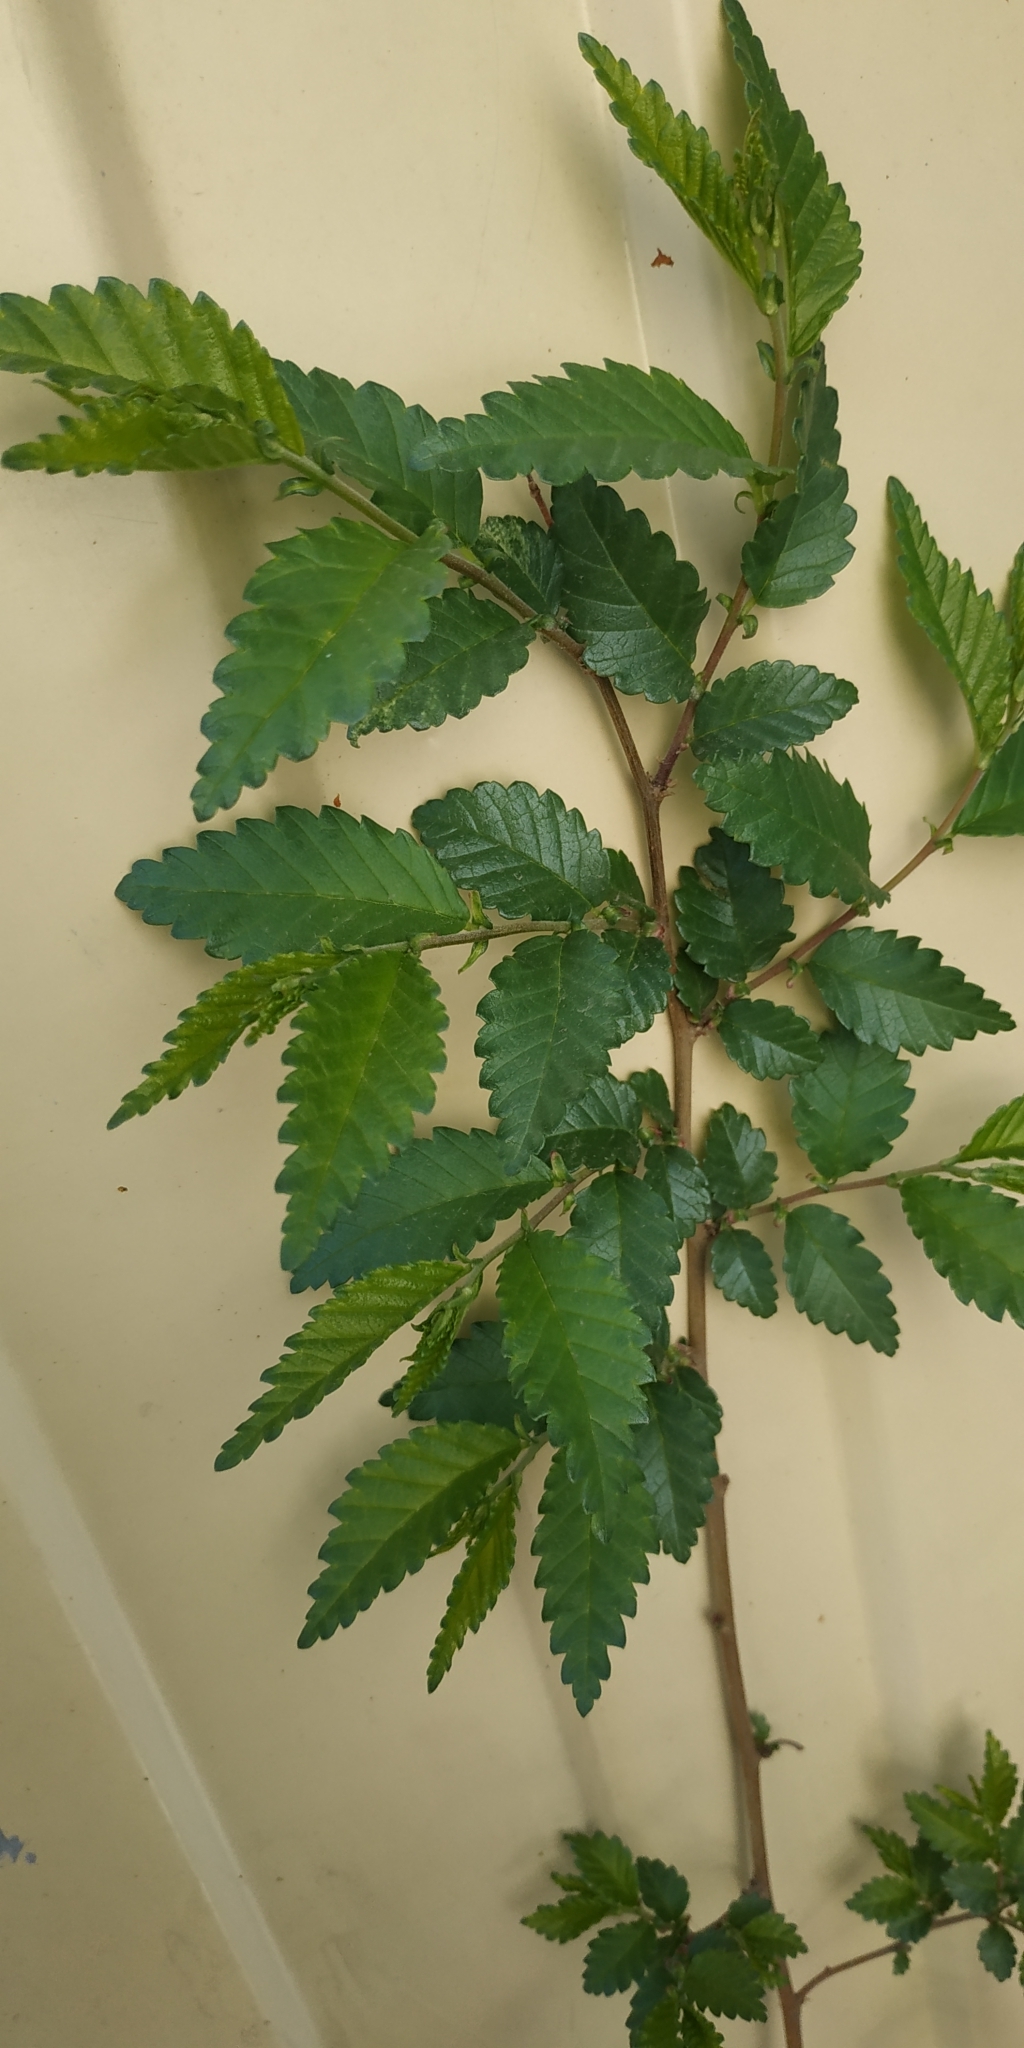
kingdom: Plantae
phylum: Tracheophyta
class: Magnoliopsida
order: Rosales
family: Ulmaceae
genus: Ulmus
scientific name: Ulmus pumila
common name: Siberian elm
